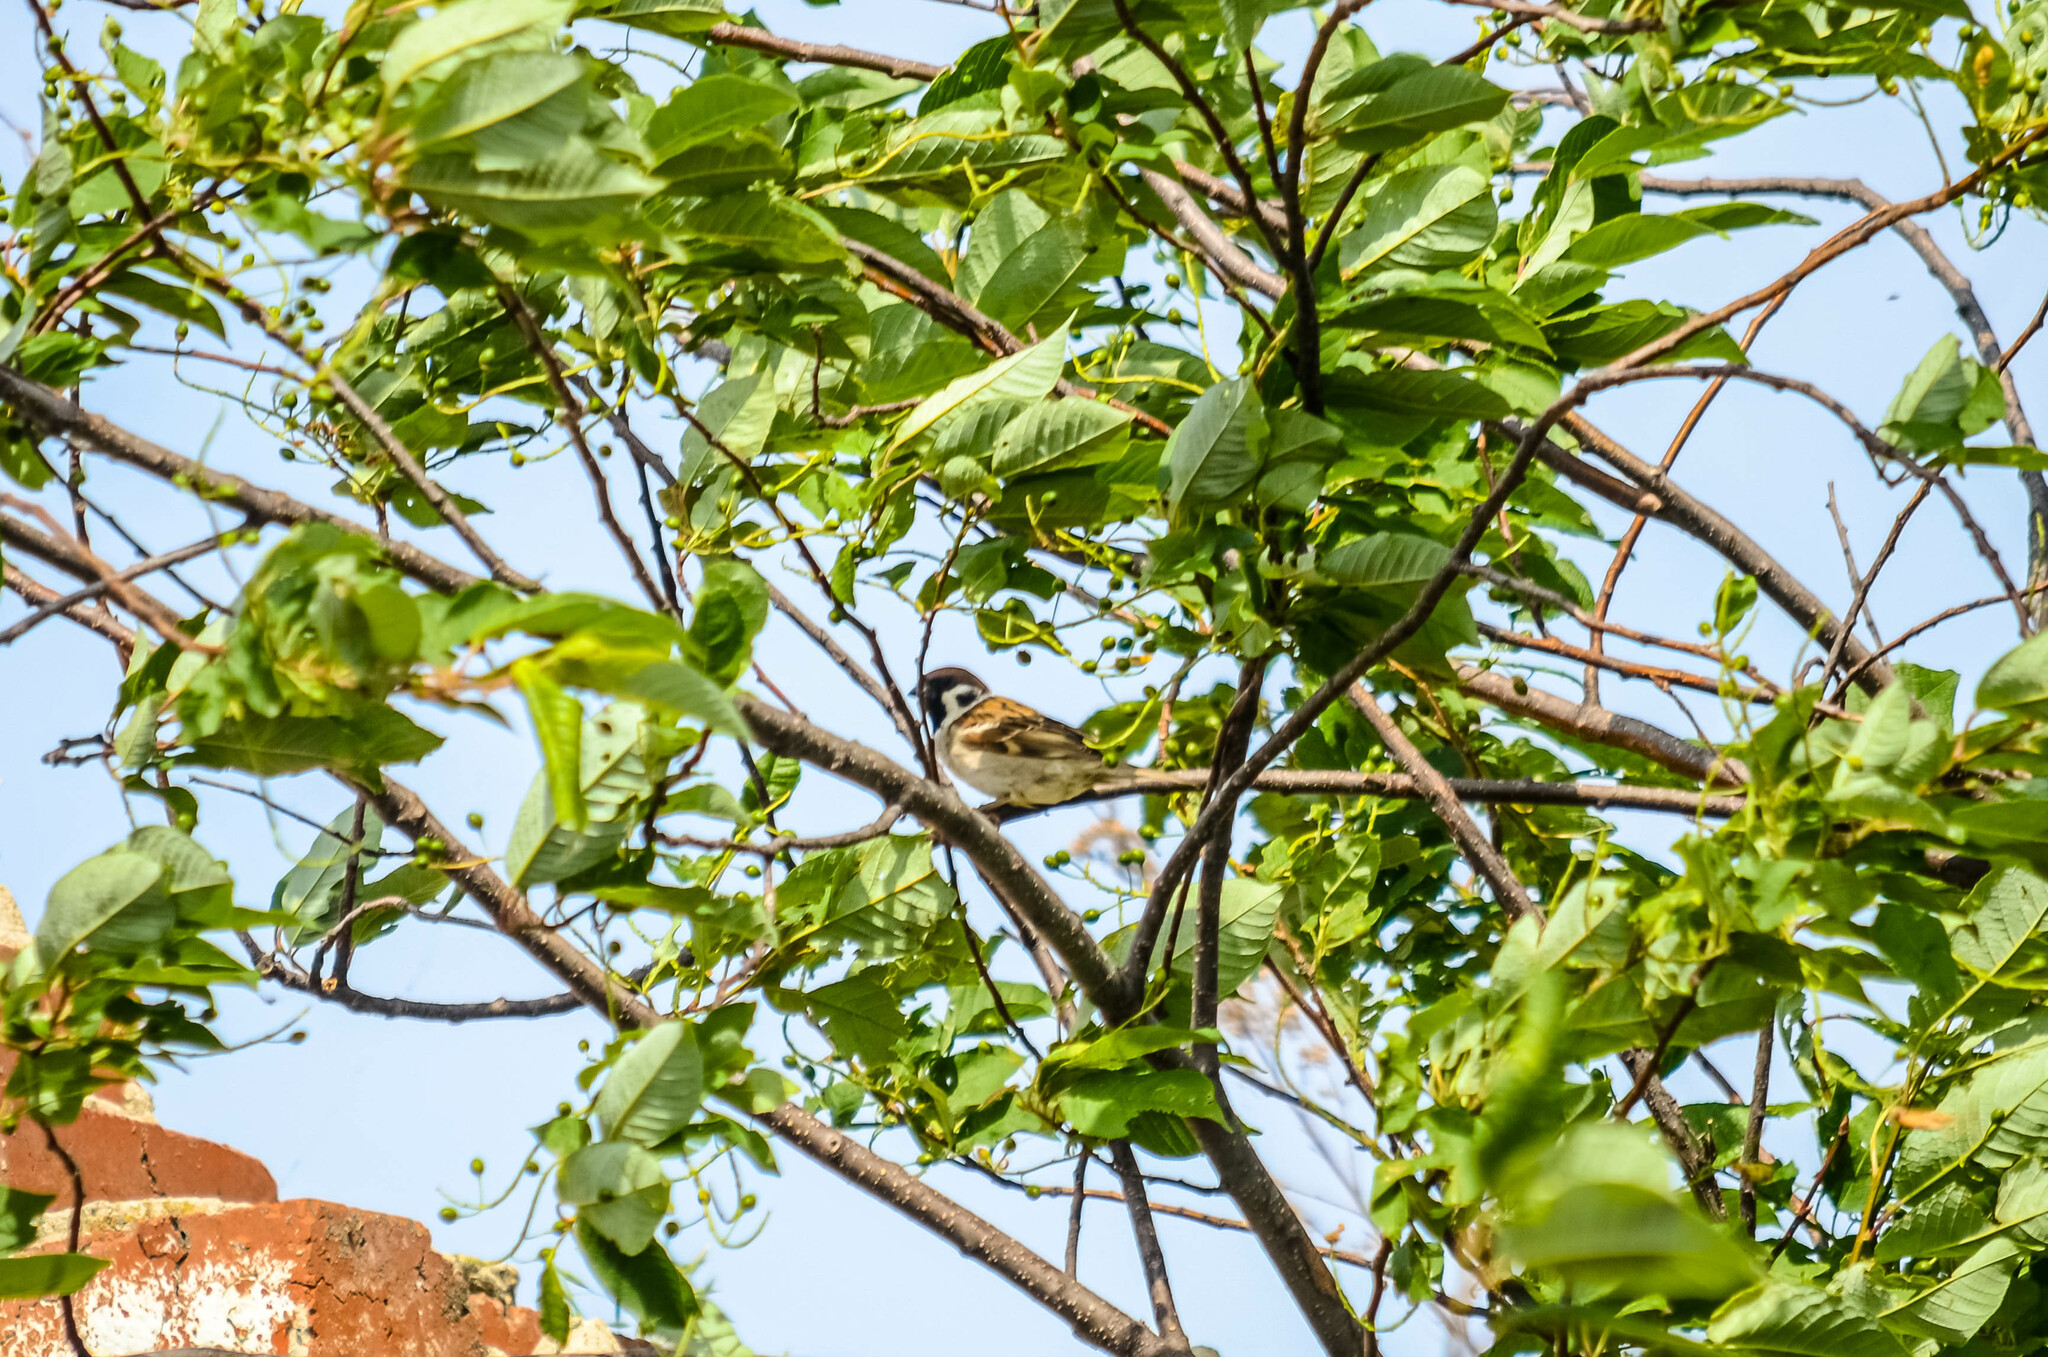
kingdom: Animalia
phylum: Chordata
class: Aves
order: Passeriformes
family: Passeridae
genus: Passer
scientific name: Passer montanus
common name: Eurasian tree sparrow
